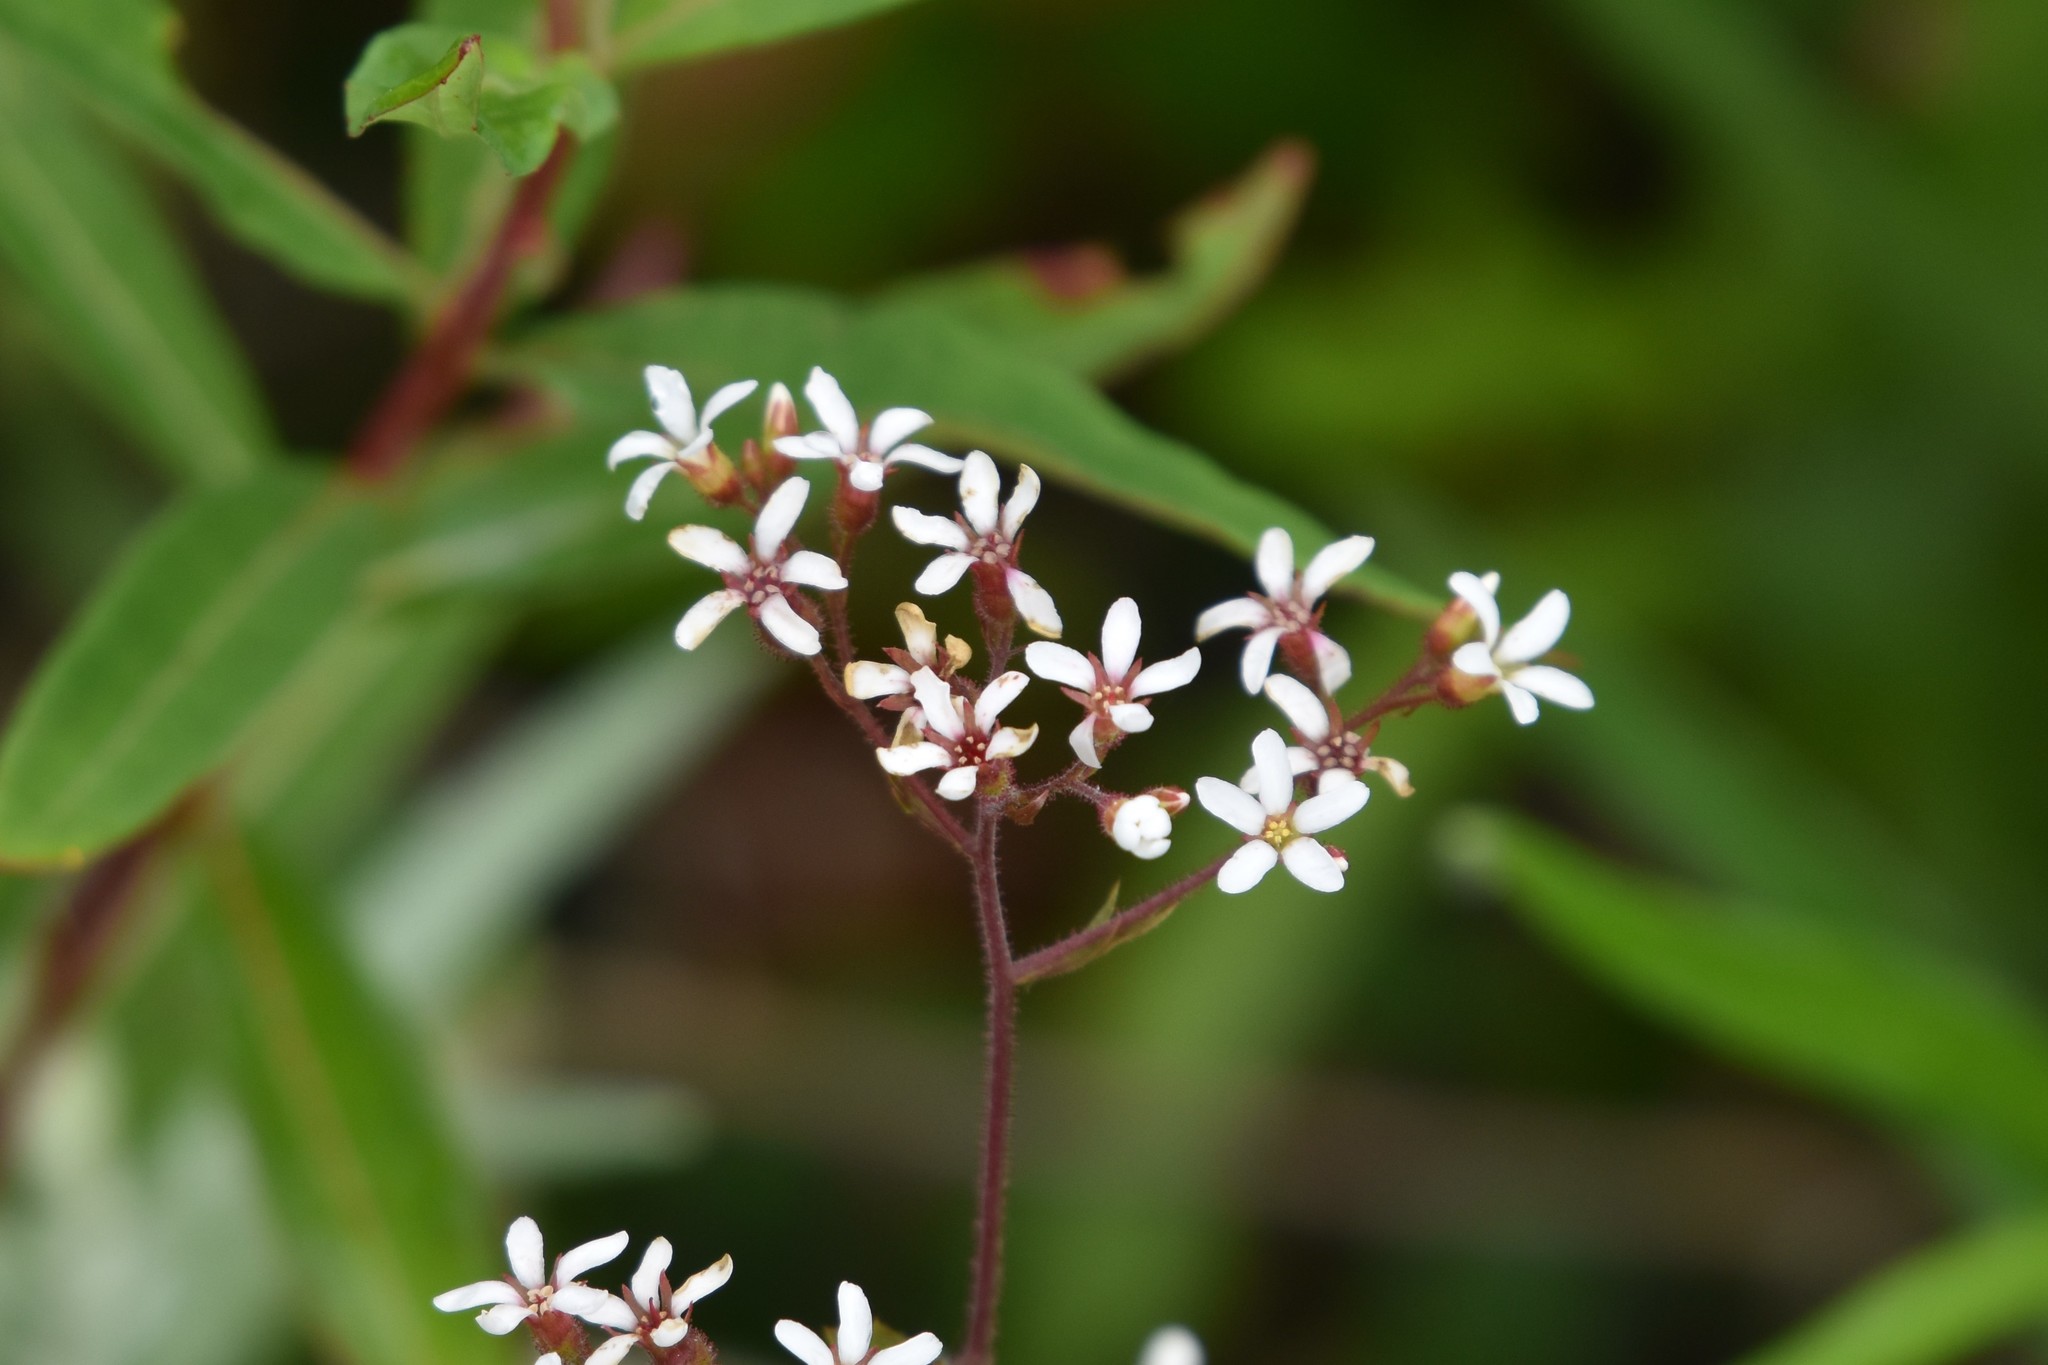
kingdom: Plantae
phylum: Tracheophyta
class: Magnoliopsida
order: Saxifragales
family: Saxifragaceae
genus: Boykinia
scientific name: Boykinia occidentalis
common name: Coast boykinia
